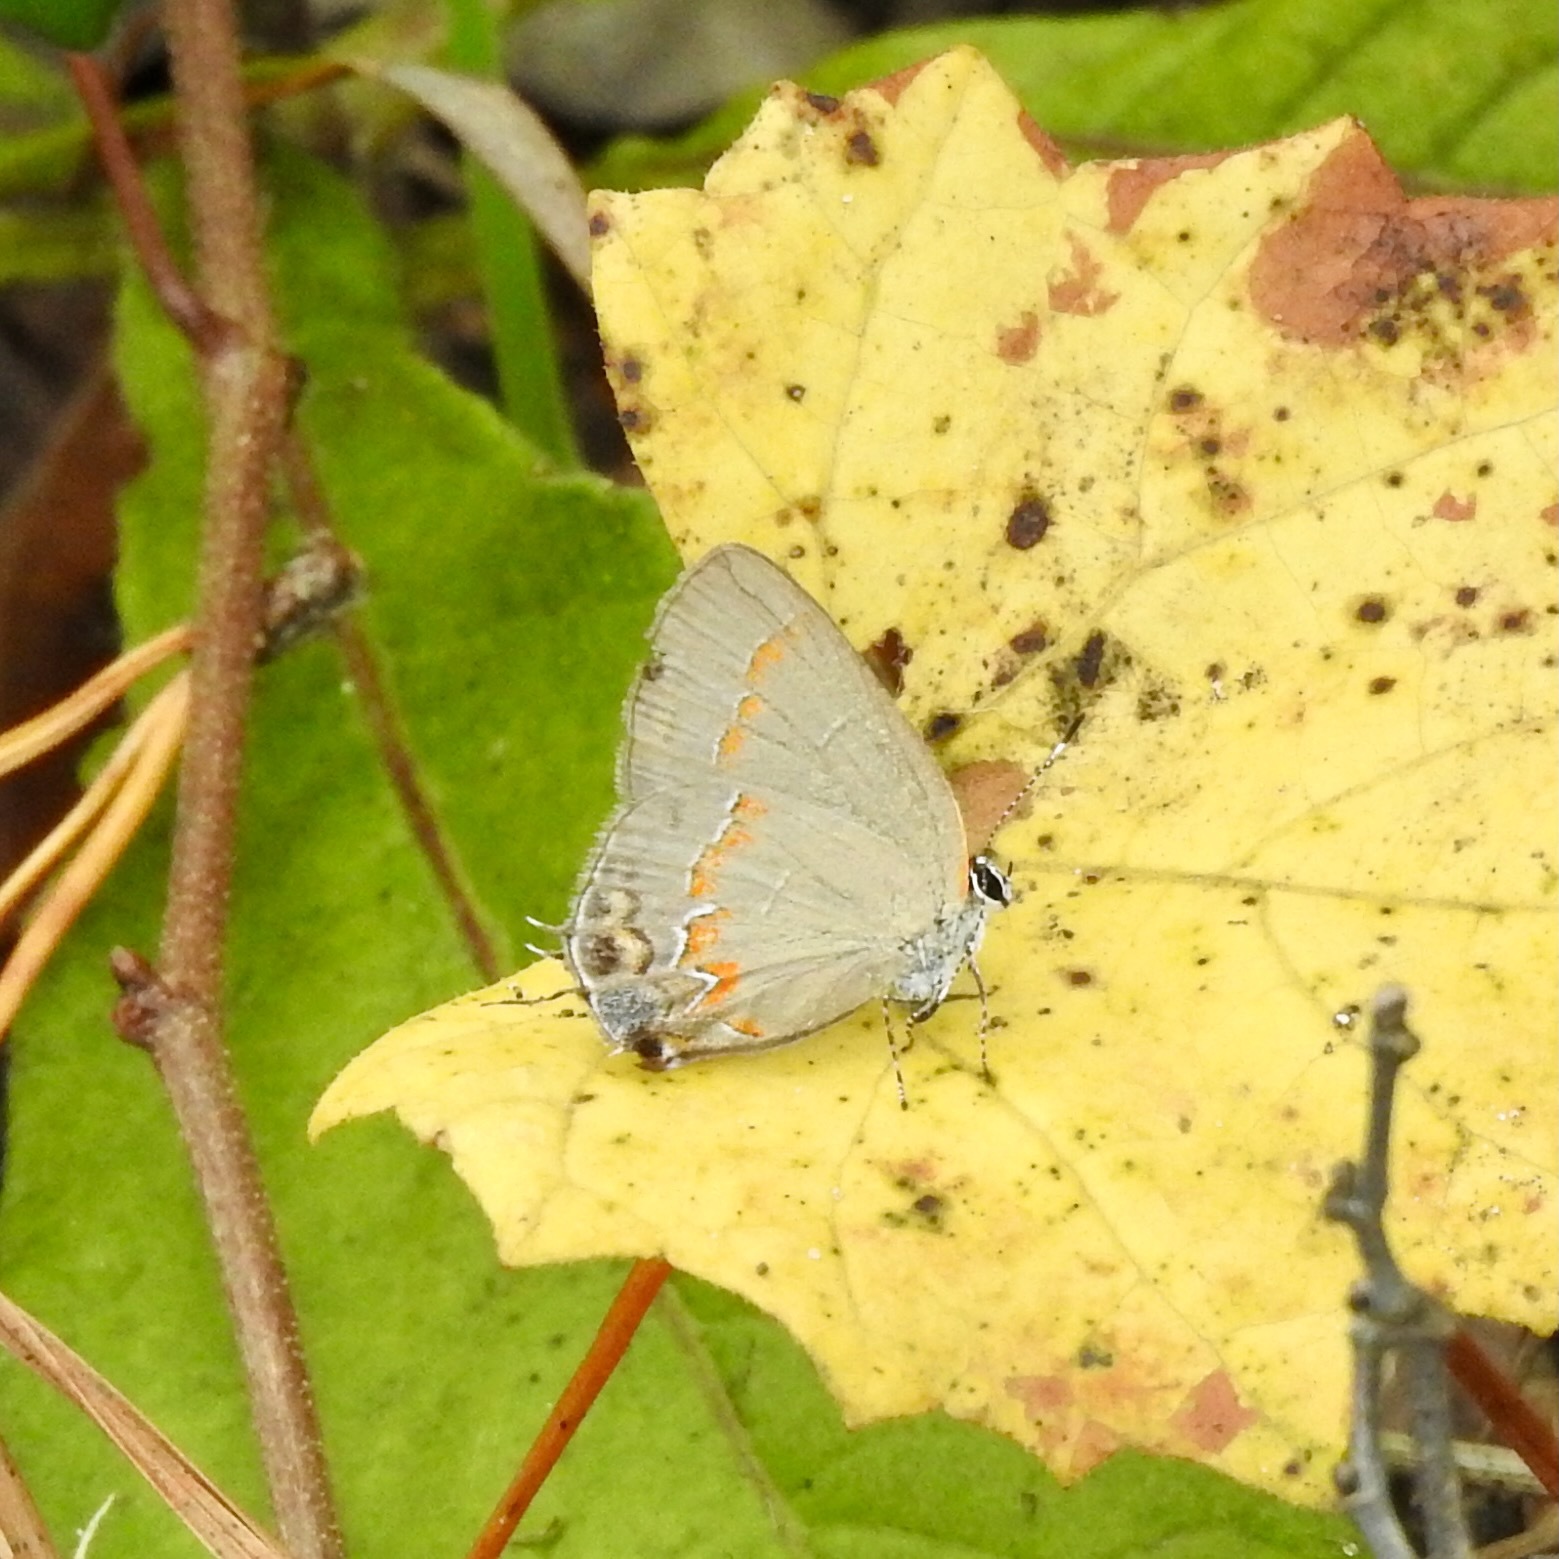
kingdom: Animalia
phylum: Arthropoda
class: Insecta
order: Lepidoptera
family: Lycaenidae
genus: Calycopis
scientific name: Calycopis cecrops
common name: Red-banded hairstreak
